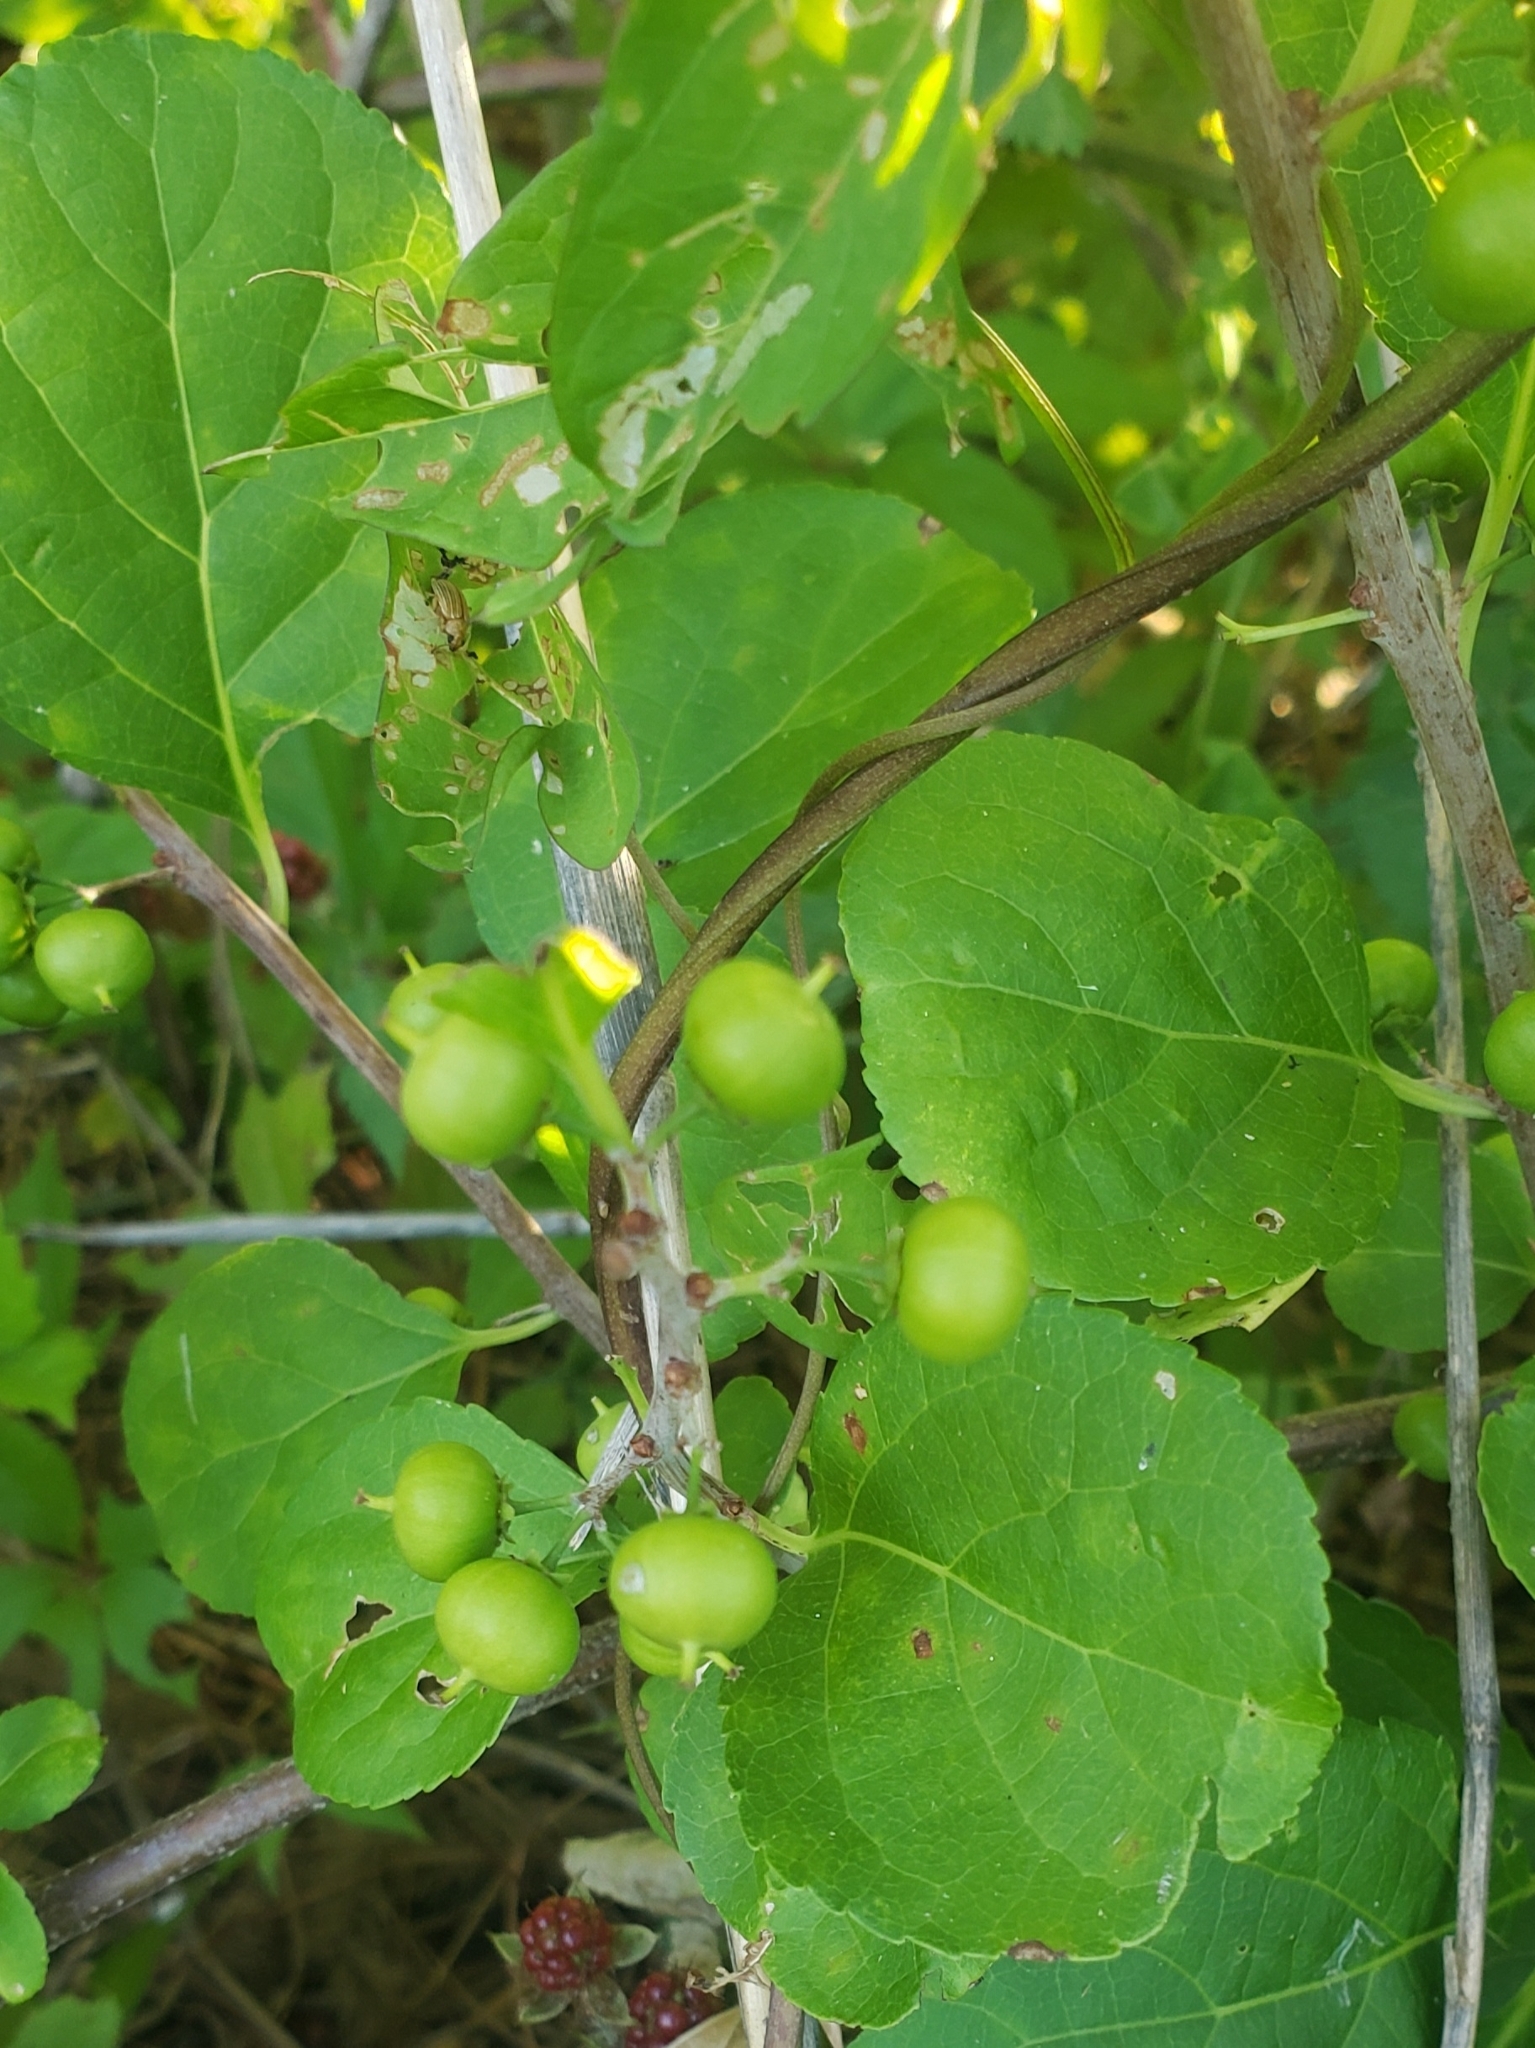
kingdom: Plantae
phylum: Tracheophyta
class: Magnoliopsida
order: Celastrales
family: Celastraceae
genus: Celastrus
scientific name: Celastrus orbiculatus
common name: Oriental bittersweet
